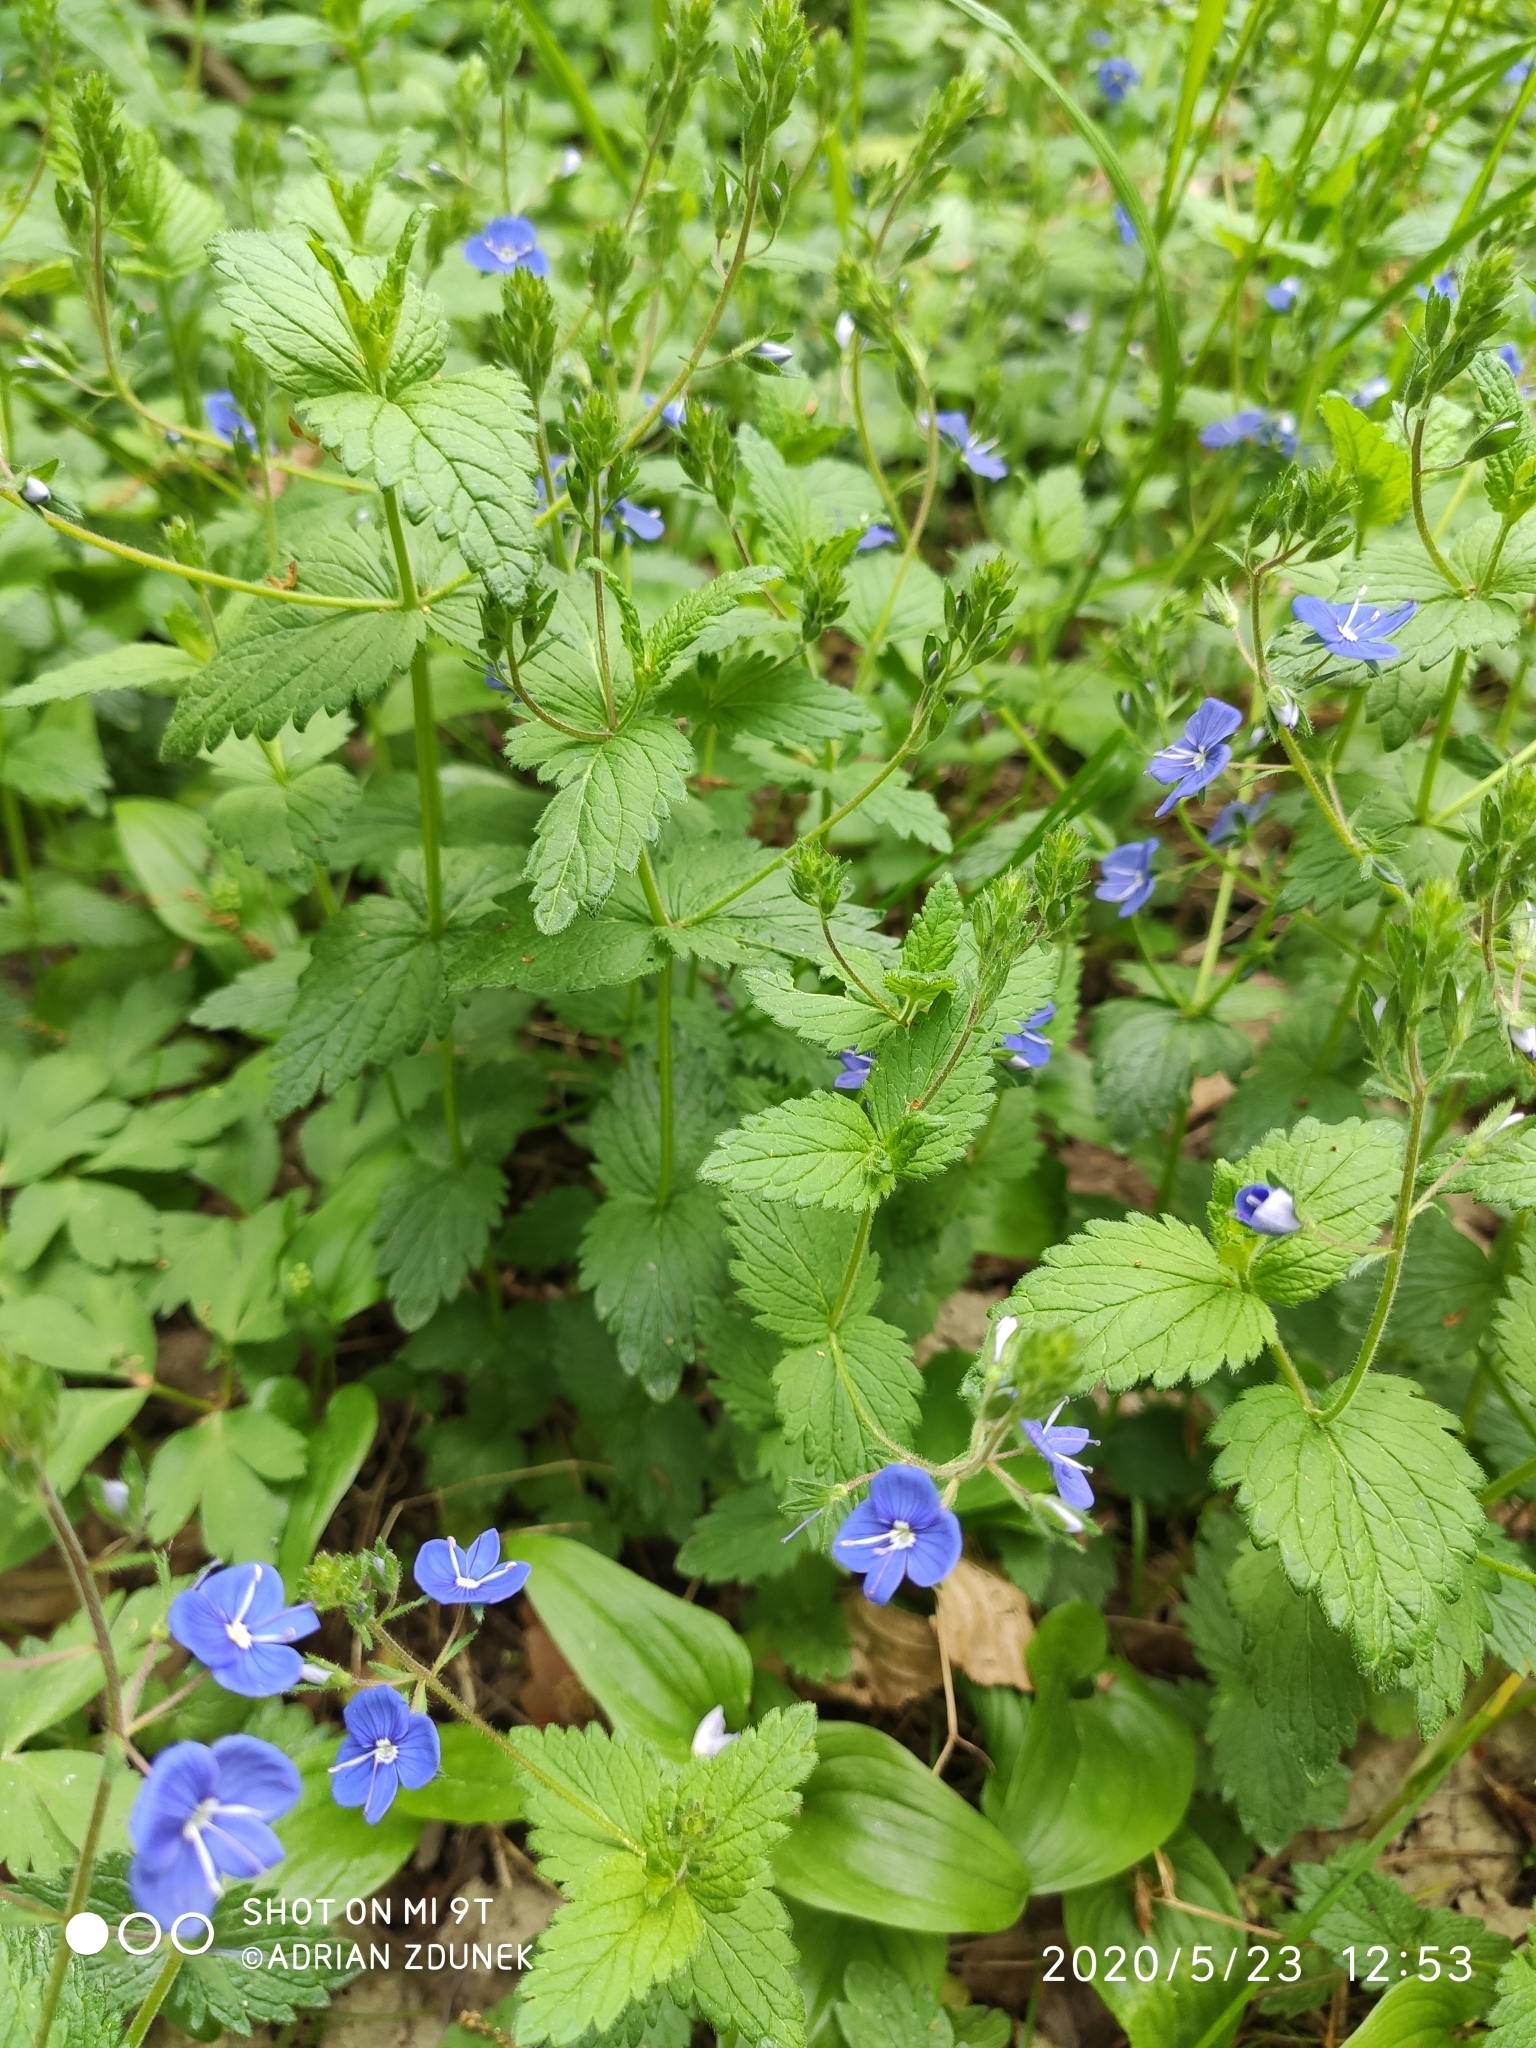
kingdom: Plantae
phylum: Tracheophyta
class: Magnoliopsida
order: Lamiales
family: Plantaginaceae
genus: Veronica
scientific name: Veronica chamaedrys
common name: Germander speedwell
